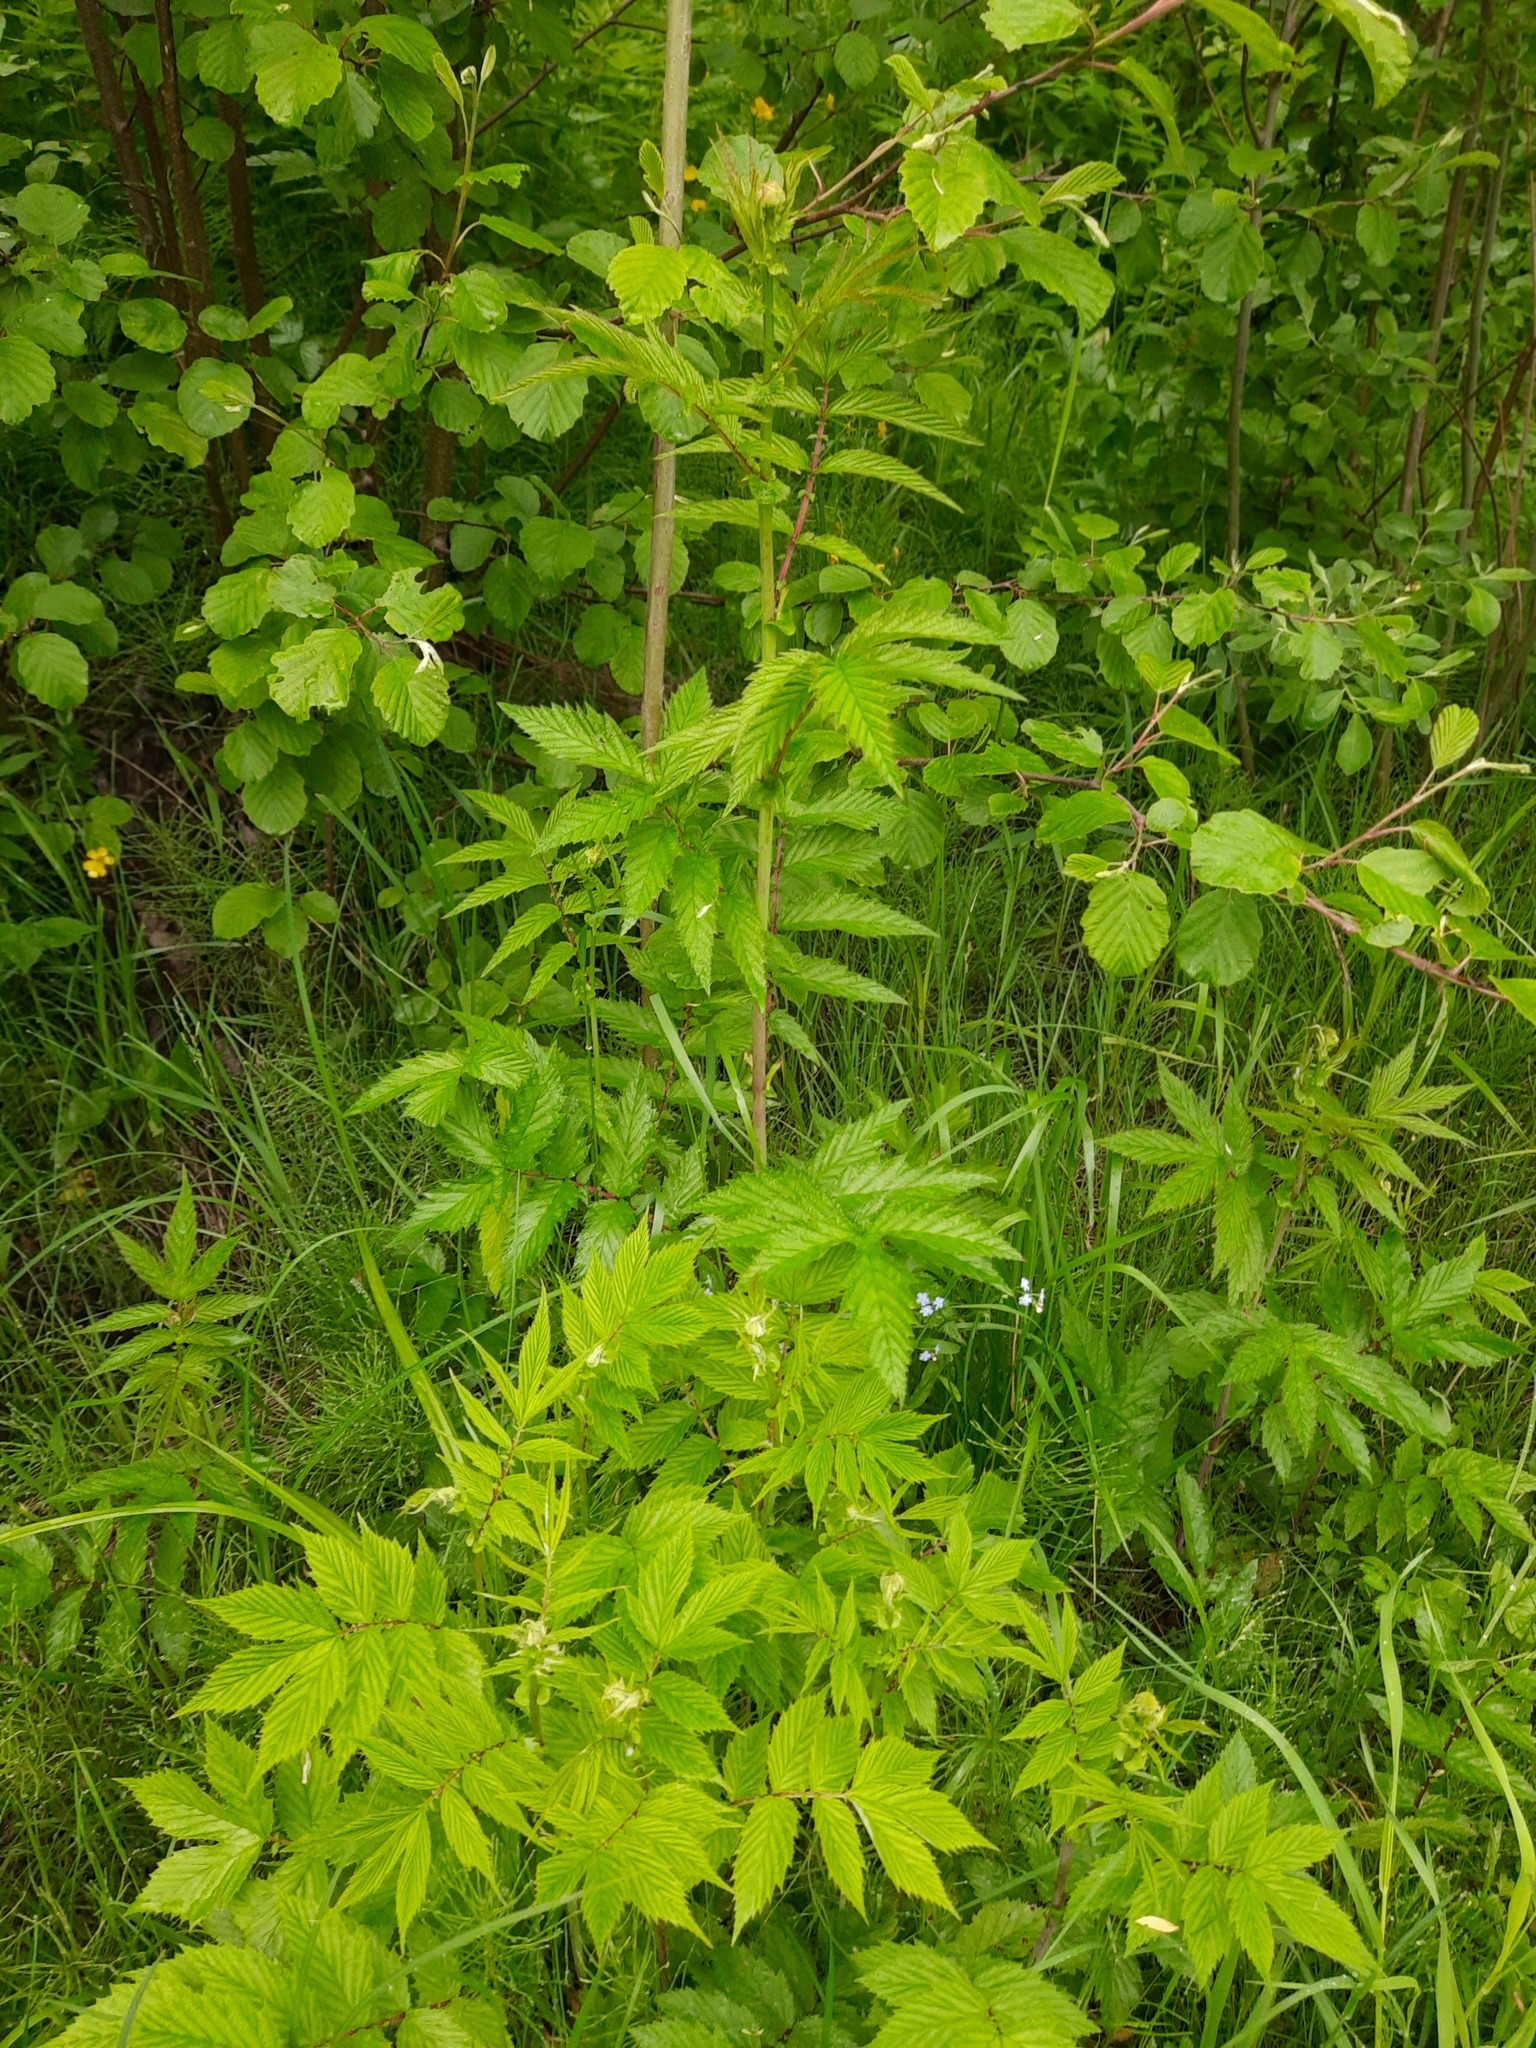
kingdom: Plantae
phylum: Tracheophyta
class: Magnoliopsida
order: Rosales
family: Rosaceae
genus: Filipendula
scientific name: Filipendula ulmaria
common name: Meadowsweet
